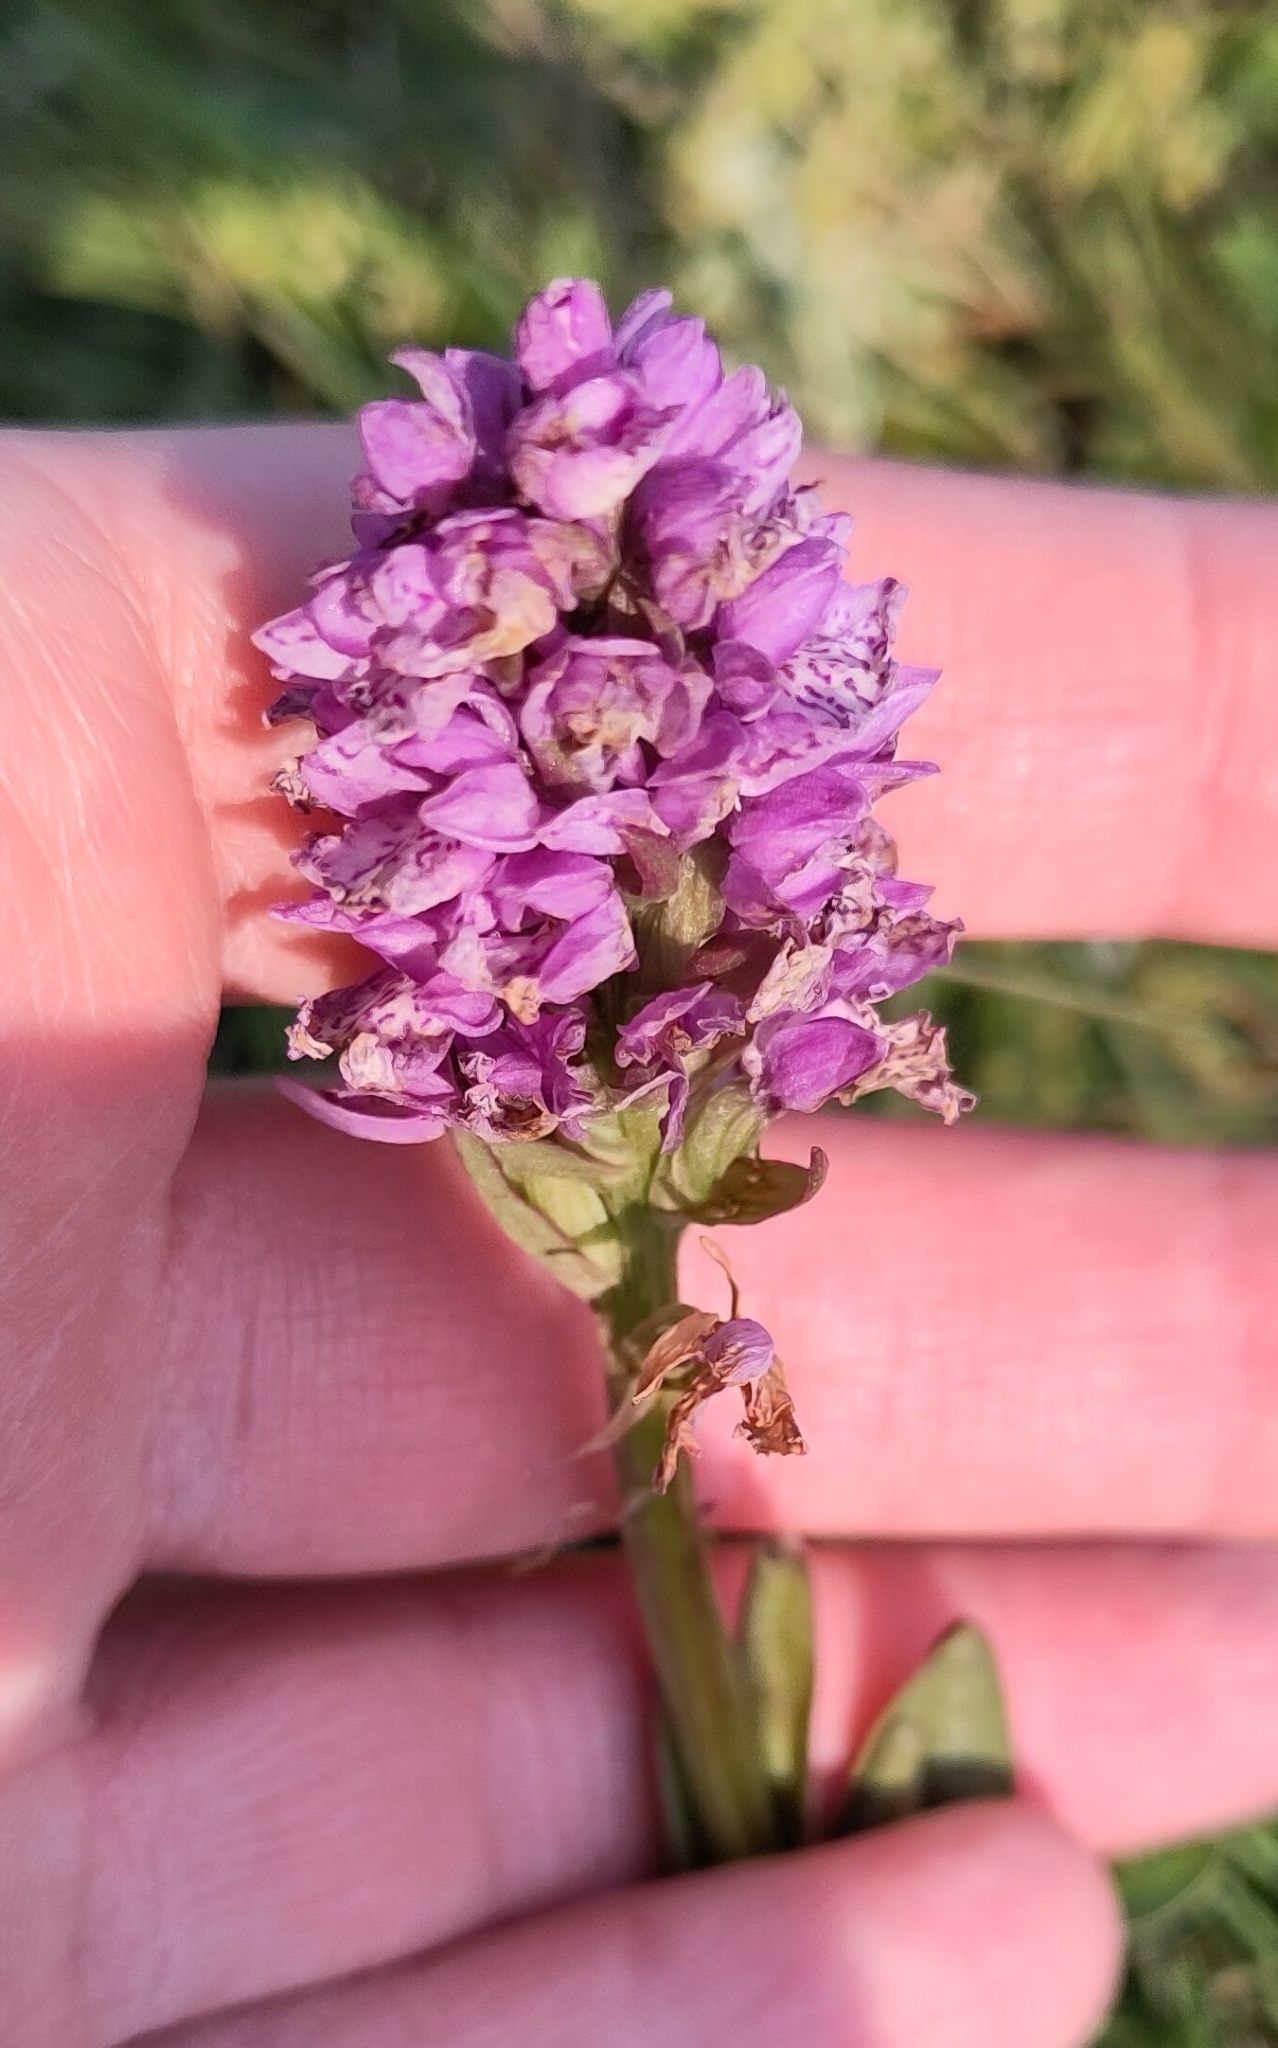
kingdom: Plantae
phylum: Tracheophyta
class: Liliopsida
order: Asparagales
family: Orchidaceae
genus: Dactylorhiza
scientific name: Dactylorhiza maculata
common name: Heath spotted-orchid
